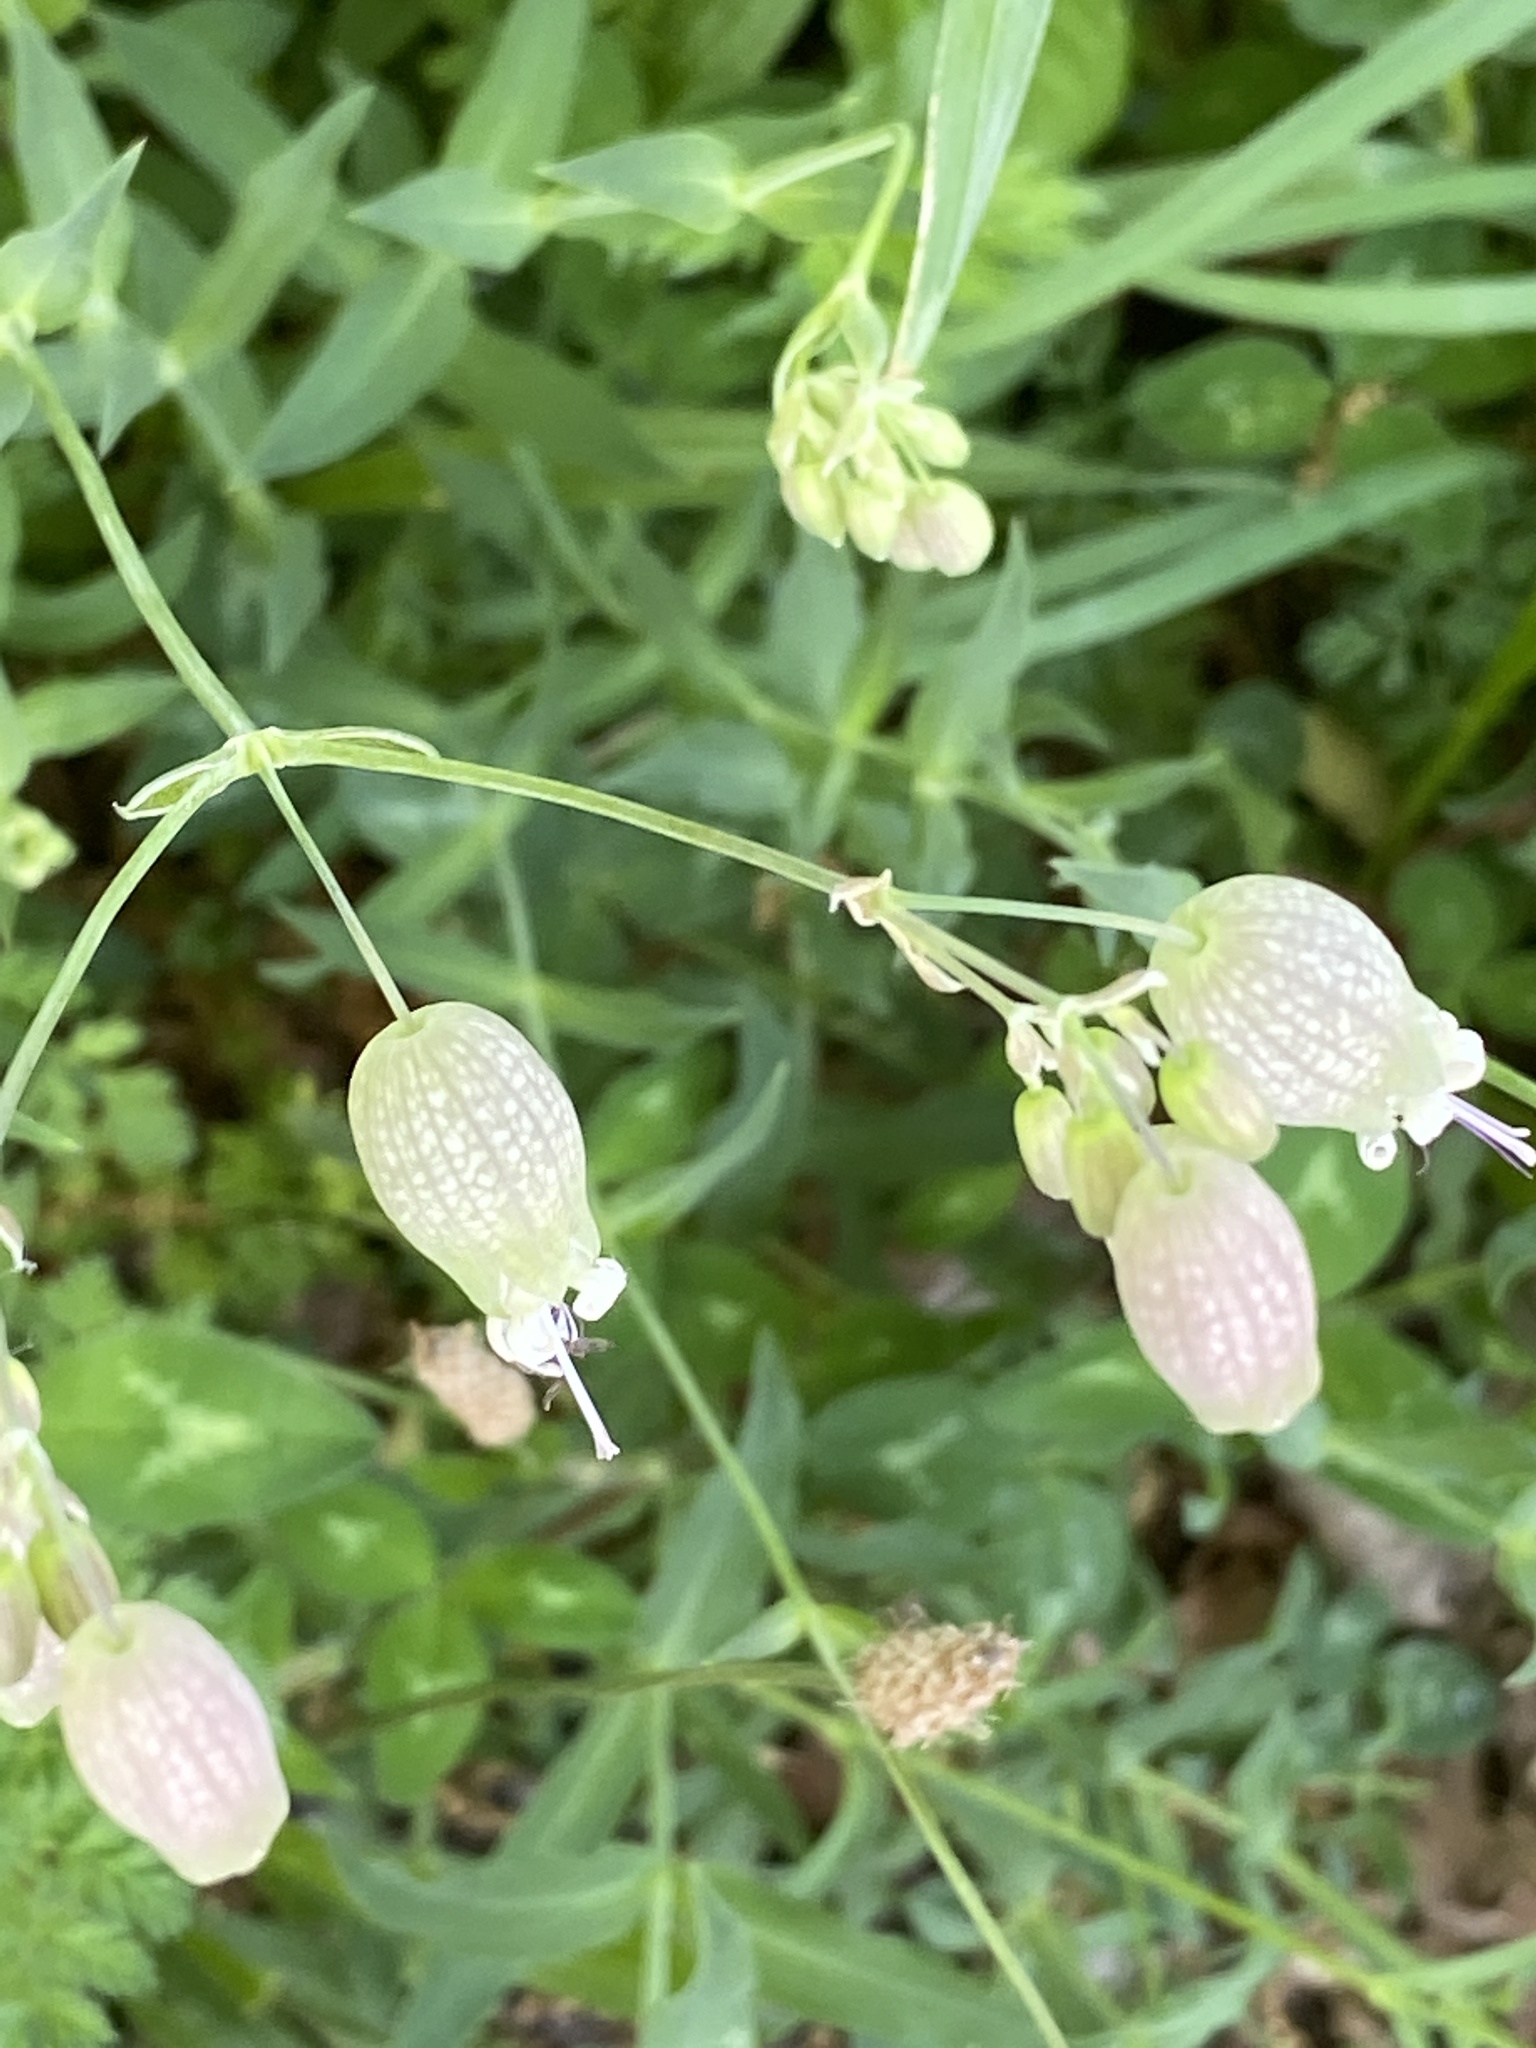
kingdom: Plantae
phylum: Tracheophyta
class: Magnoliopsida
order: Caryophyllales
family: Caryophyllaceae
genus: Silene
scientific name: Silene vulgaris
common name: Bladder campion
